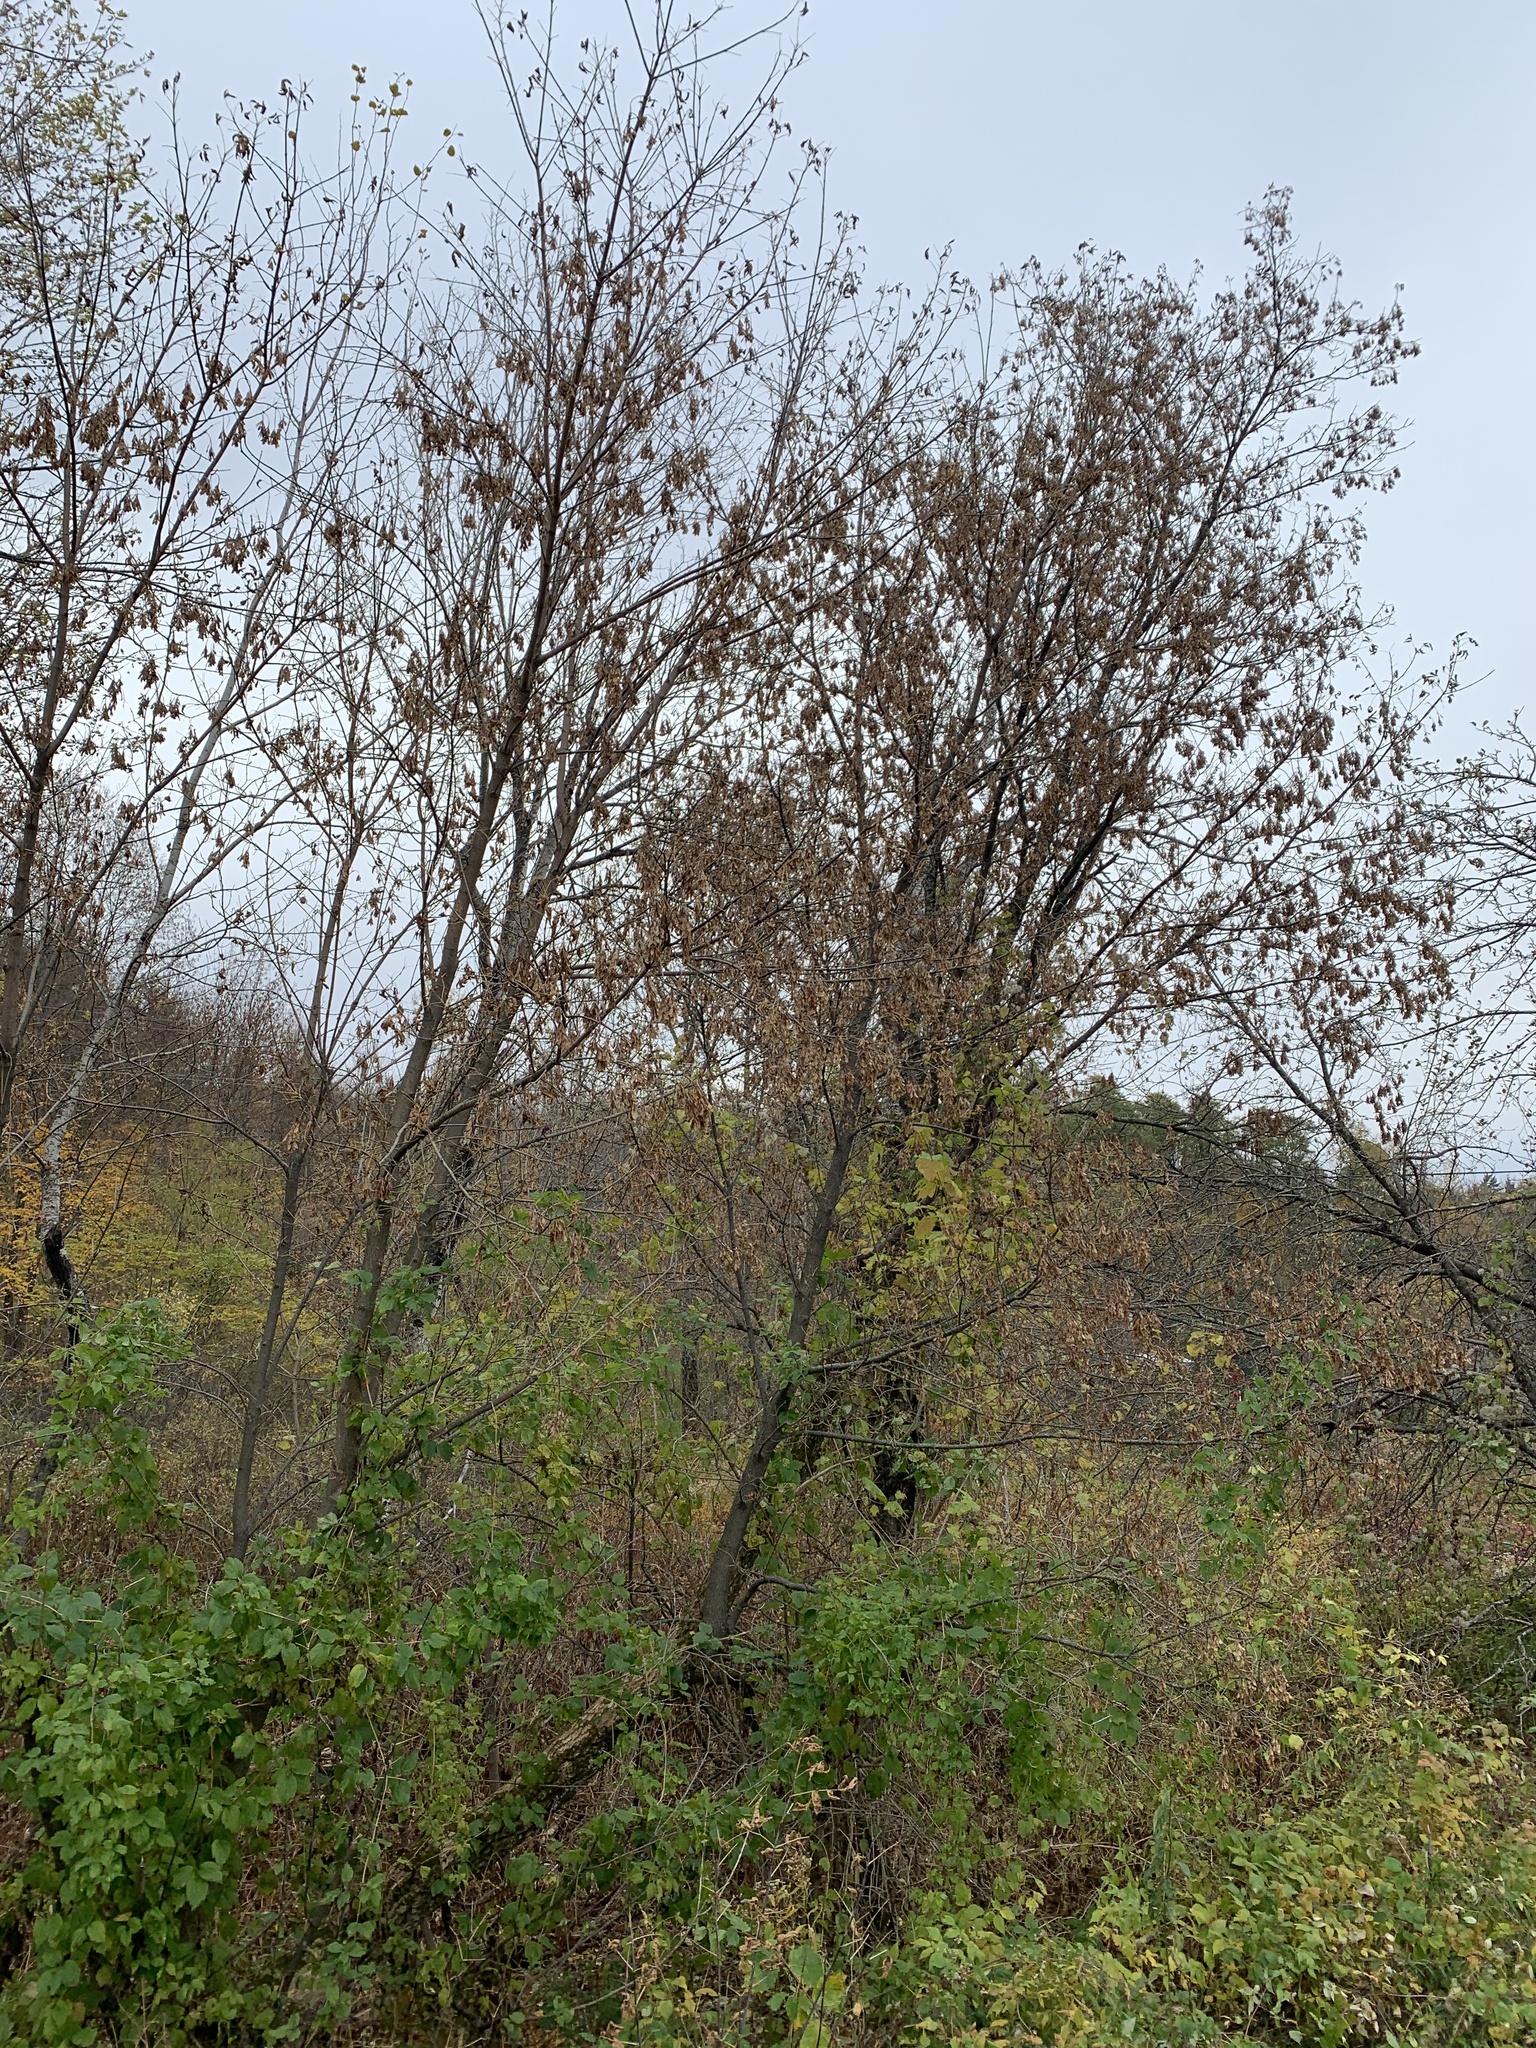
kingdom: Plantae
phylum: Tracheophyta
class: Magnoliopsida
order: Sapindales
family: Sapindaceae
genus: Acer
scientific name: Acer negundo
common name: Ashleaf maple
